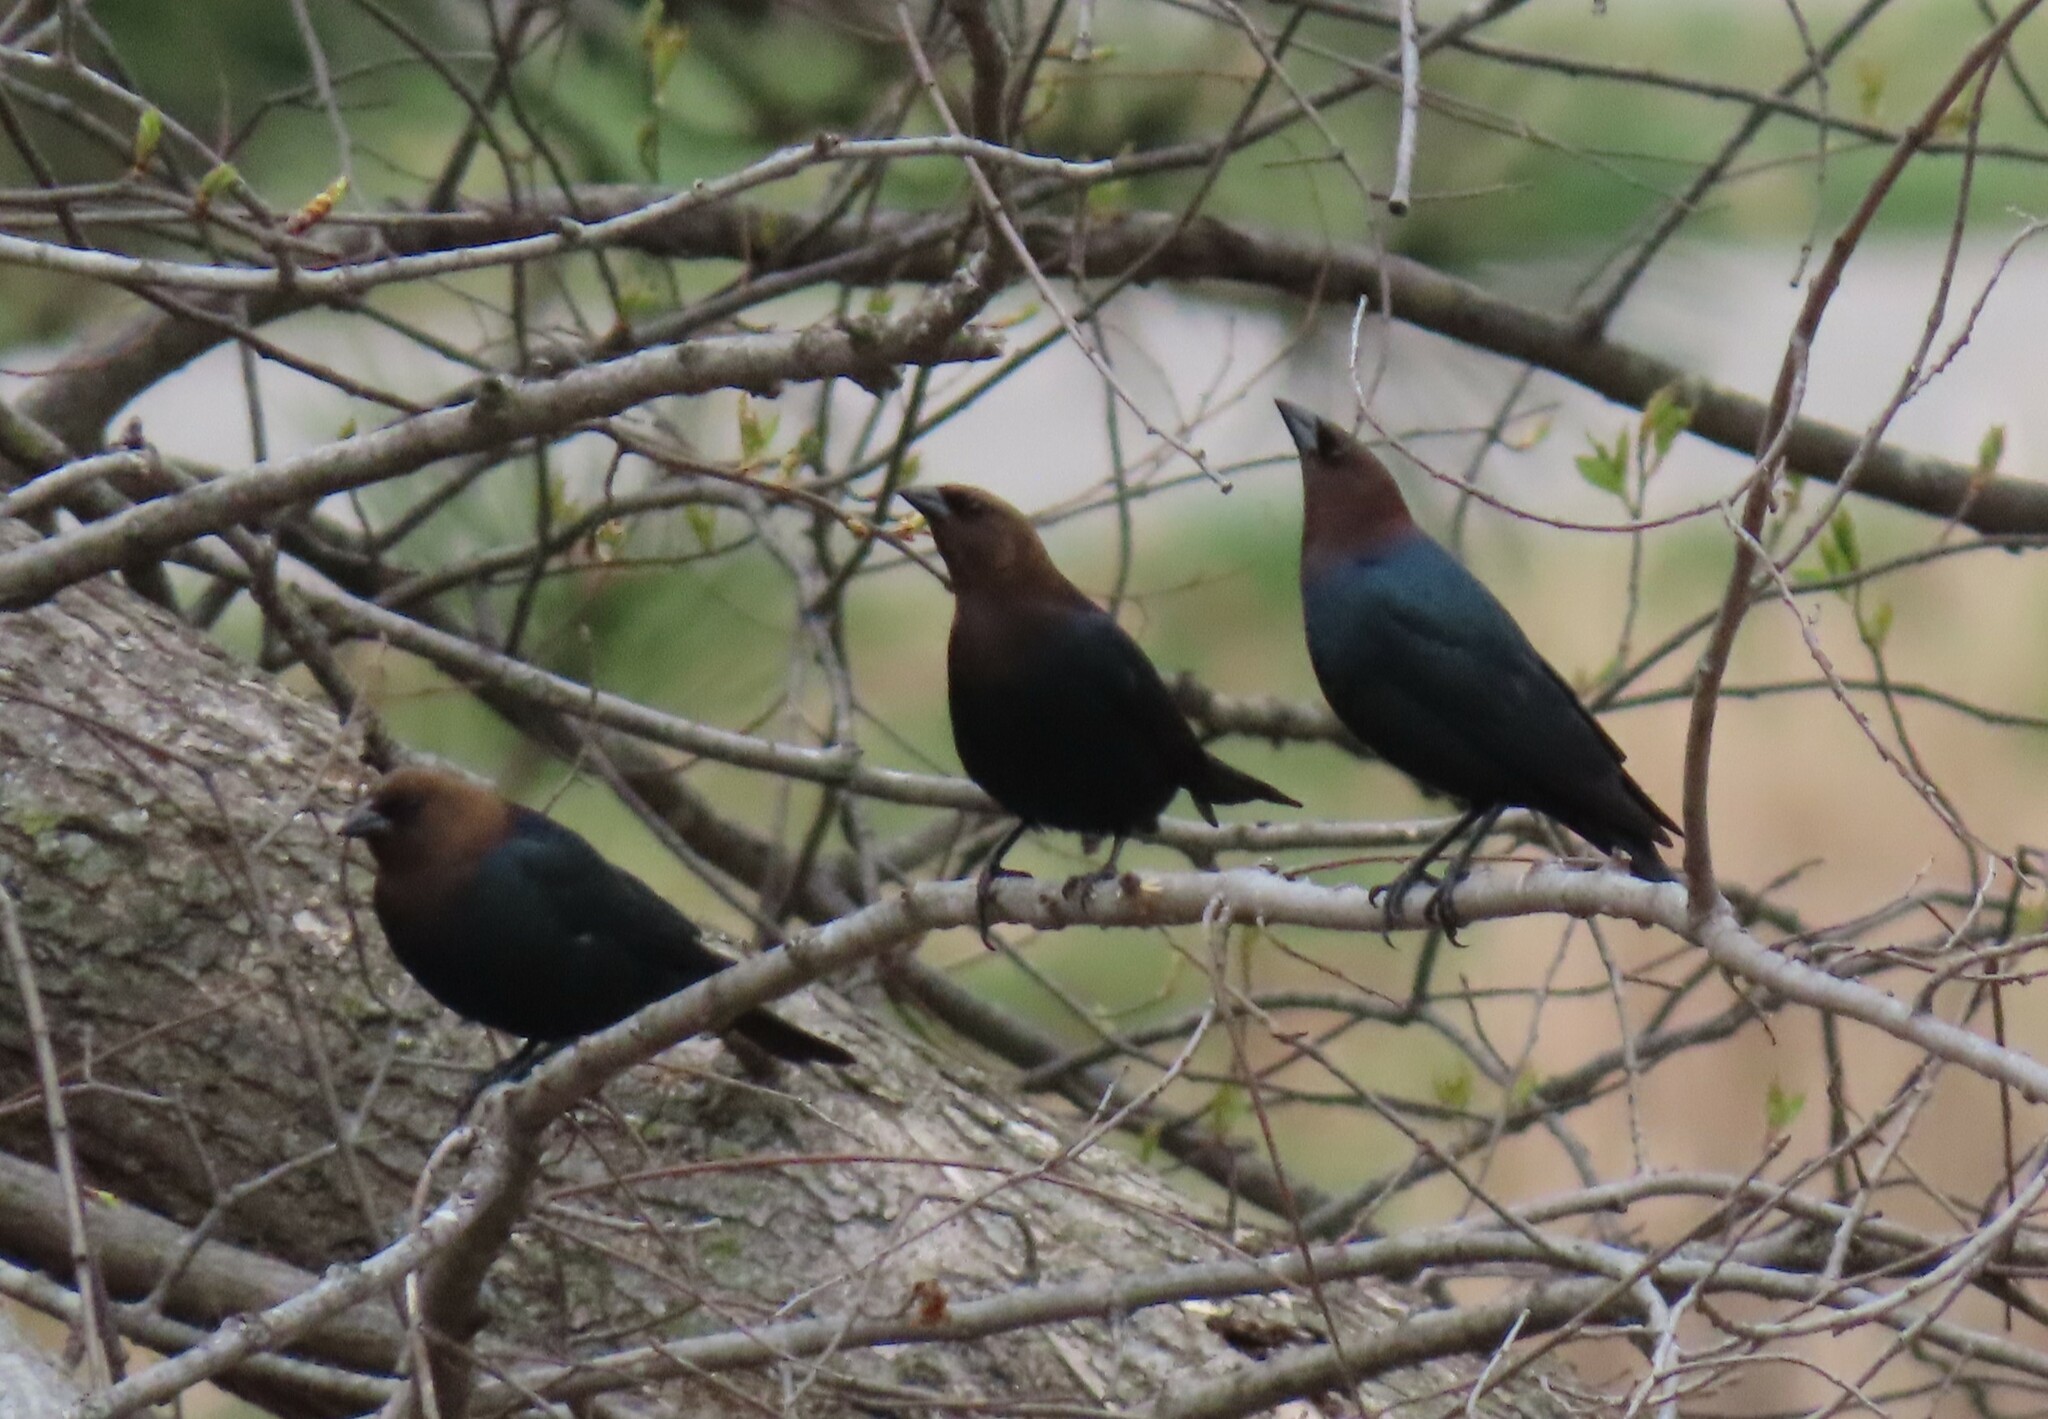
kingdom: Animalia
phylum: Chordata
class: Aves
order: Passeriformes
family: Icteridae
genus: Molothrus
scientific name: Molothrus ater
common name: Brown-headed cowbird
